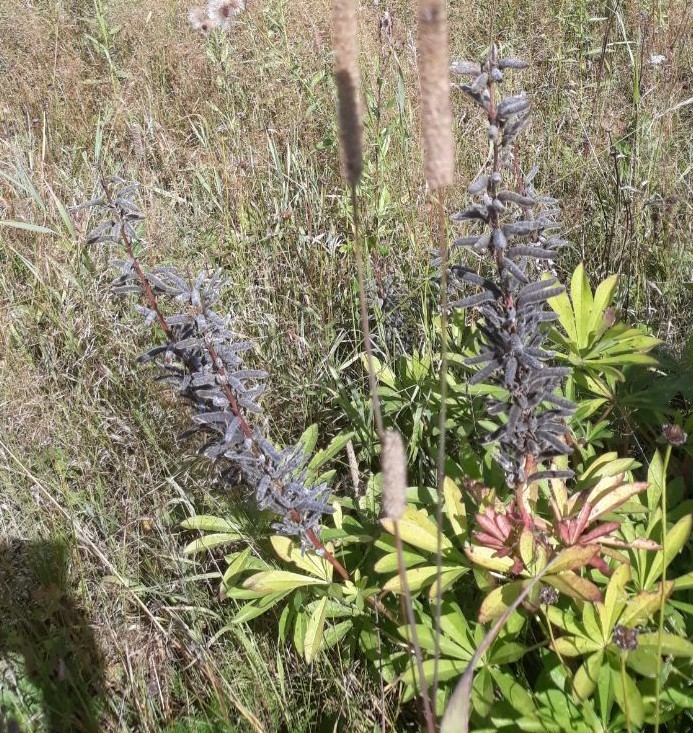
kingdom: Plantae
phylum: Tracheophyta
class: Magnoliopsida
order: Fabales
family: Fabaceae
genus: Lupinus
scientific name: Lupinus polyphyllus
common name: Garden lupin
